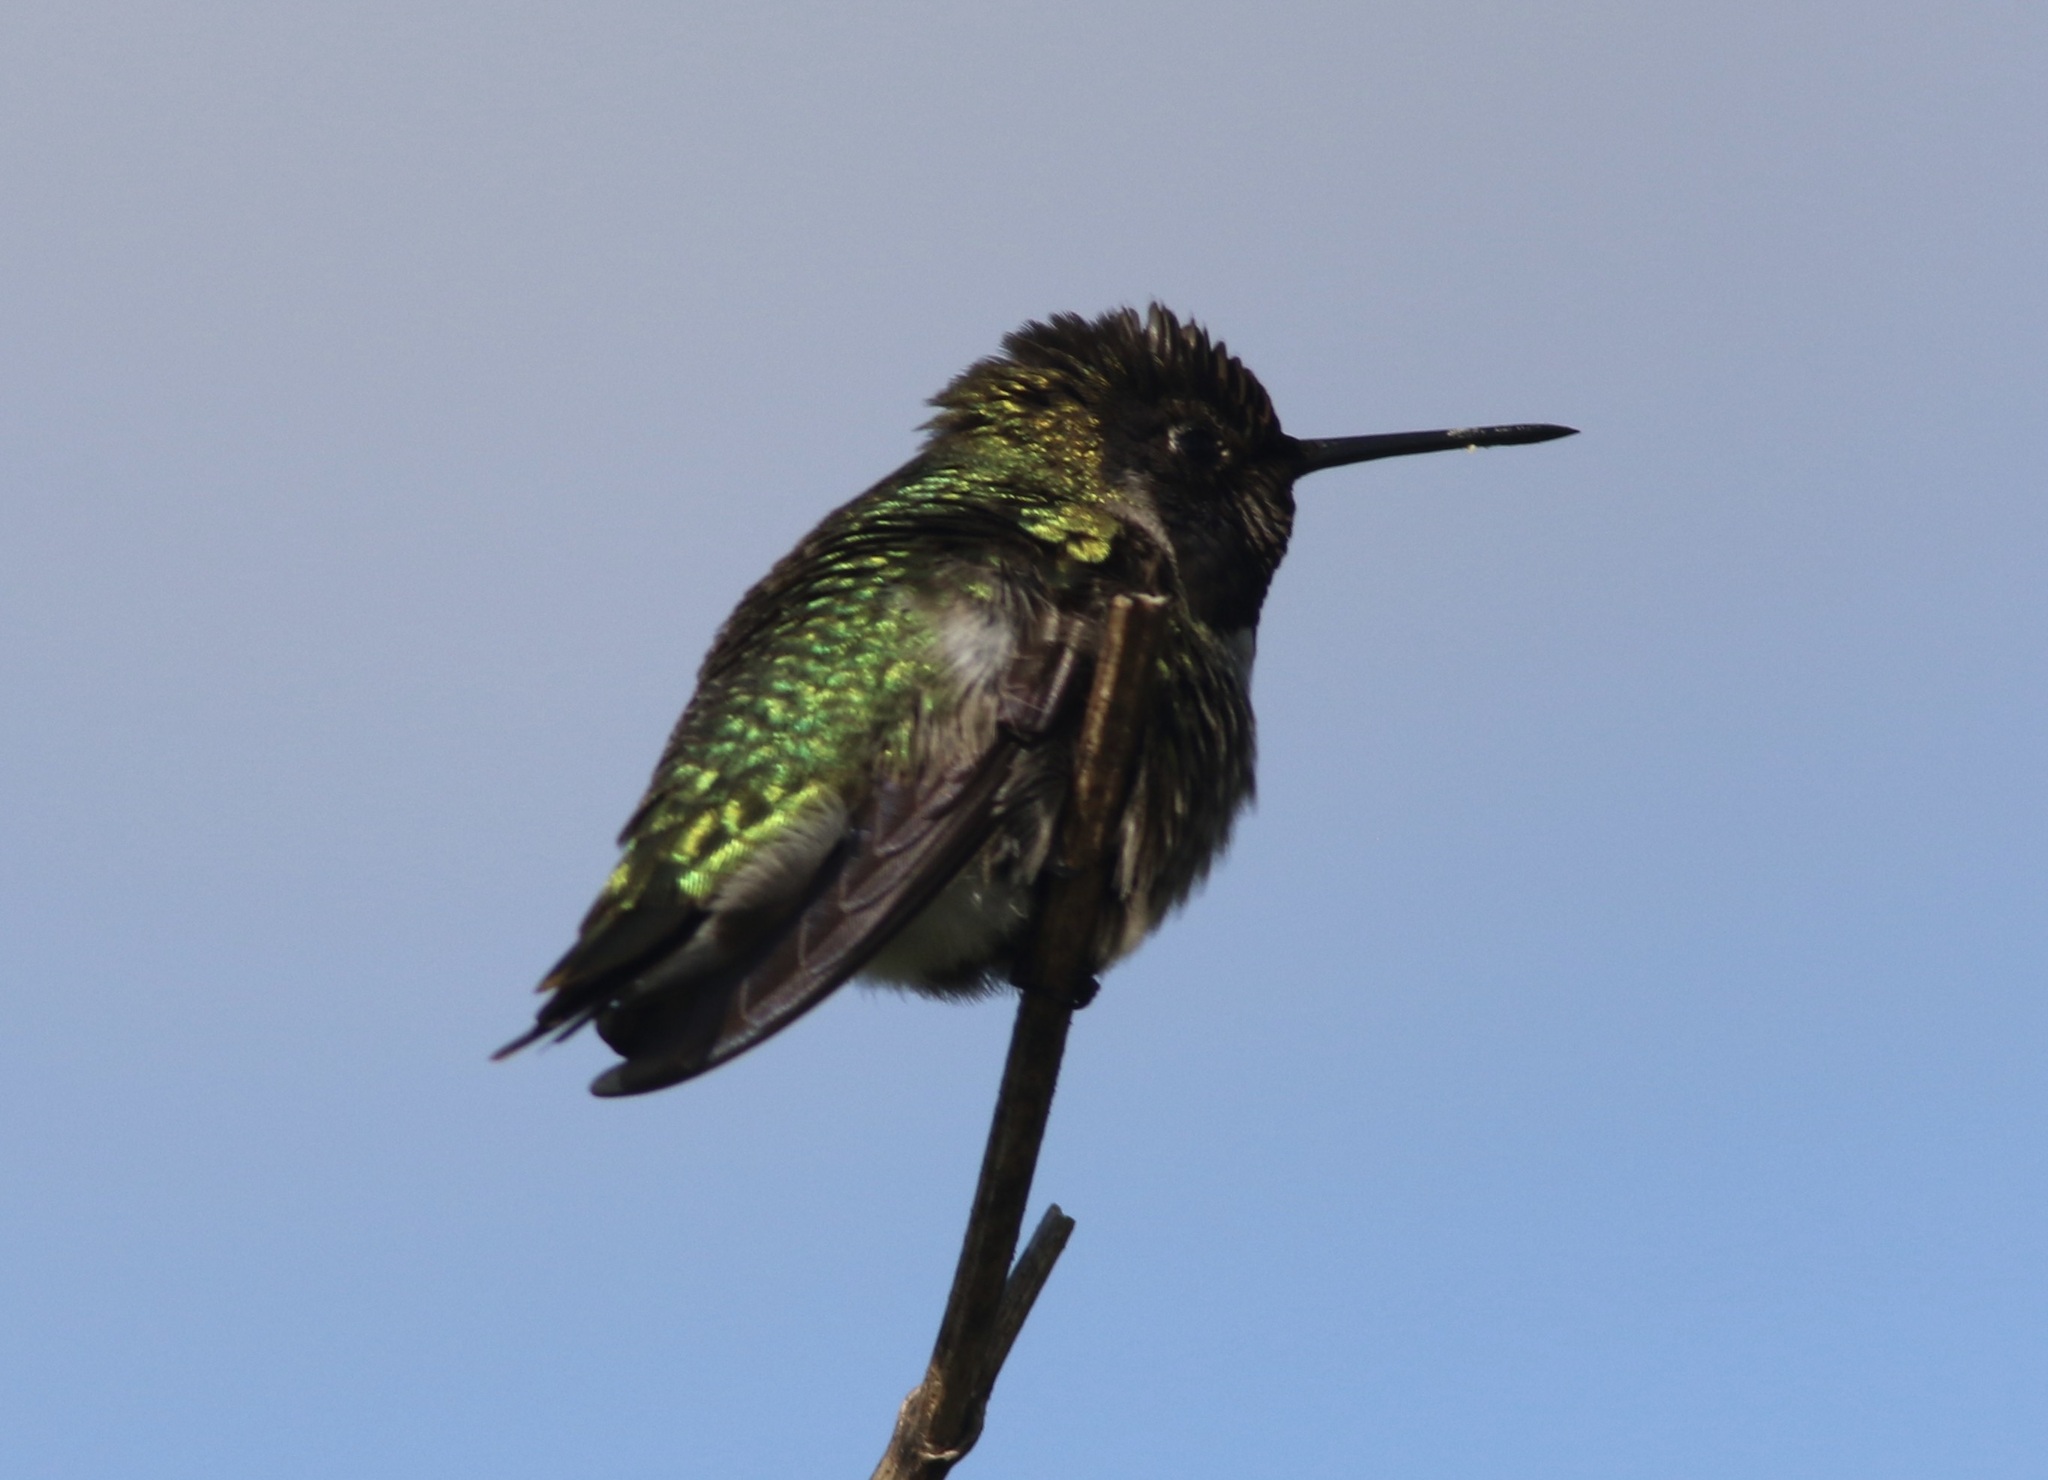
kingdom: Animalia
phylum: Chordata
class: Aves
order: Apodiformes
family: Trochilidae
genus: Calypte
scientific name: Calypte anna
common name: Anna's hummingbird
